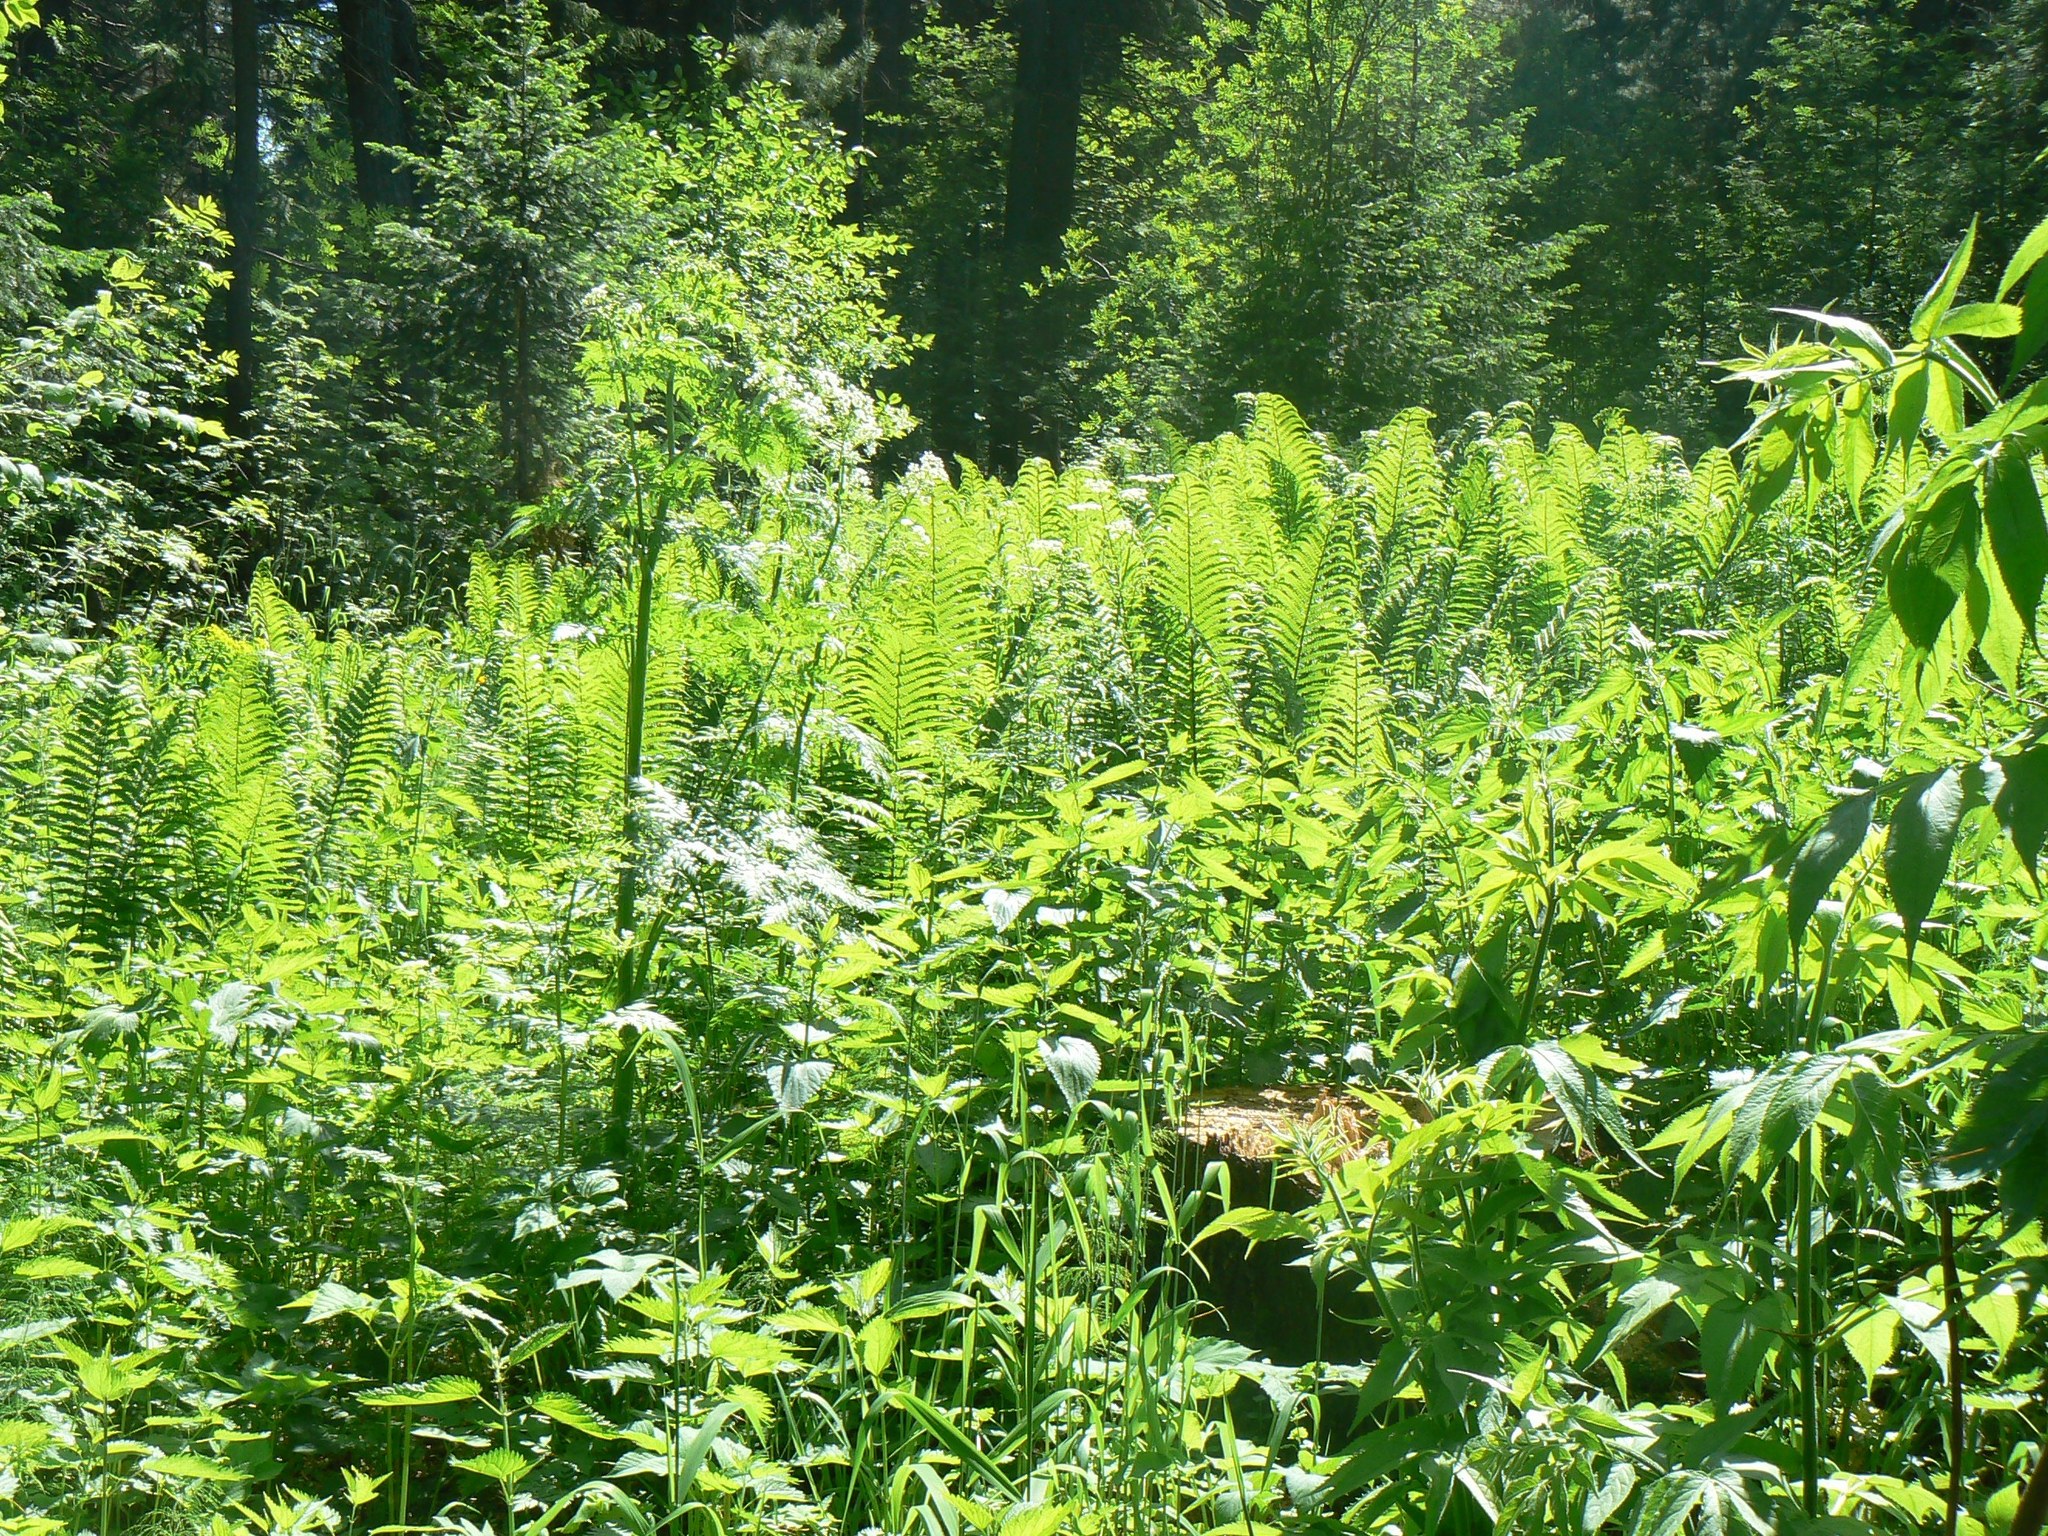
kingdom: Plantae
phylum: Tracheophyta
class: Polypodiopsida
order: Polypodiales
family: Onocleaceae
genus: Matteuccia
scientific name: Matteuccia struthiopteris
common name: Ostrich fern
